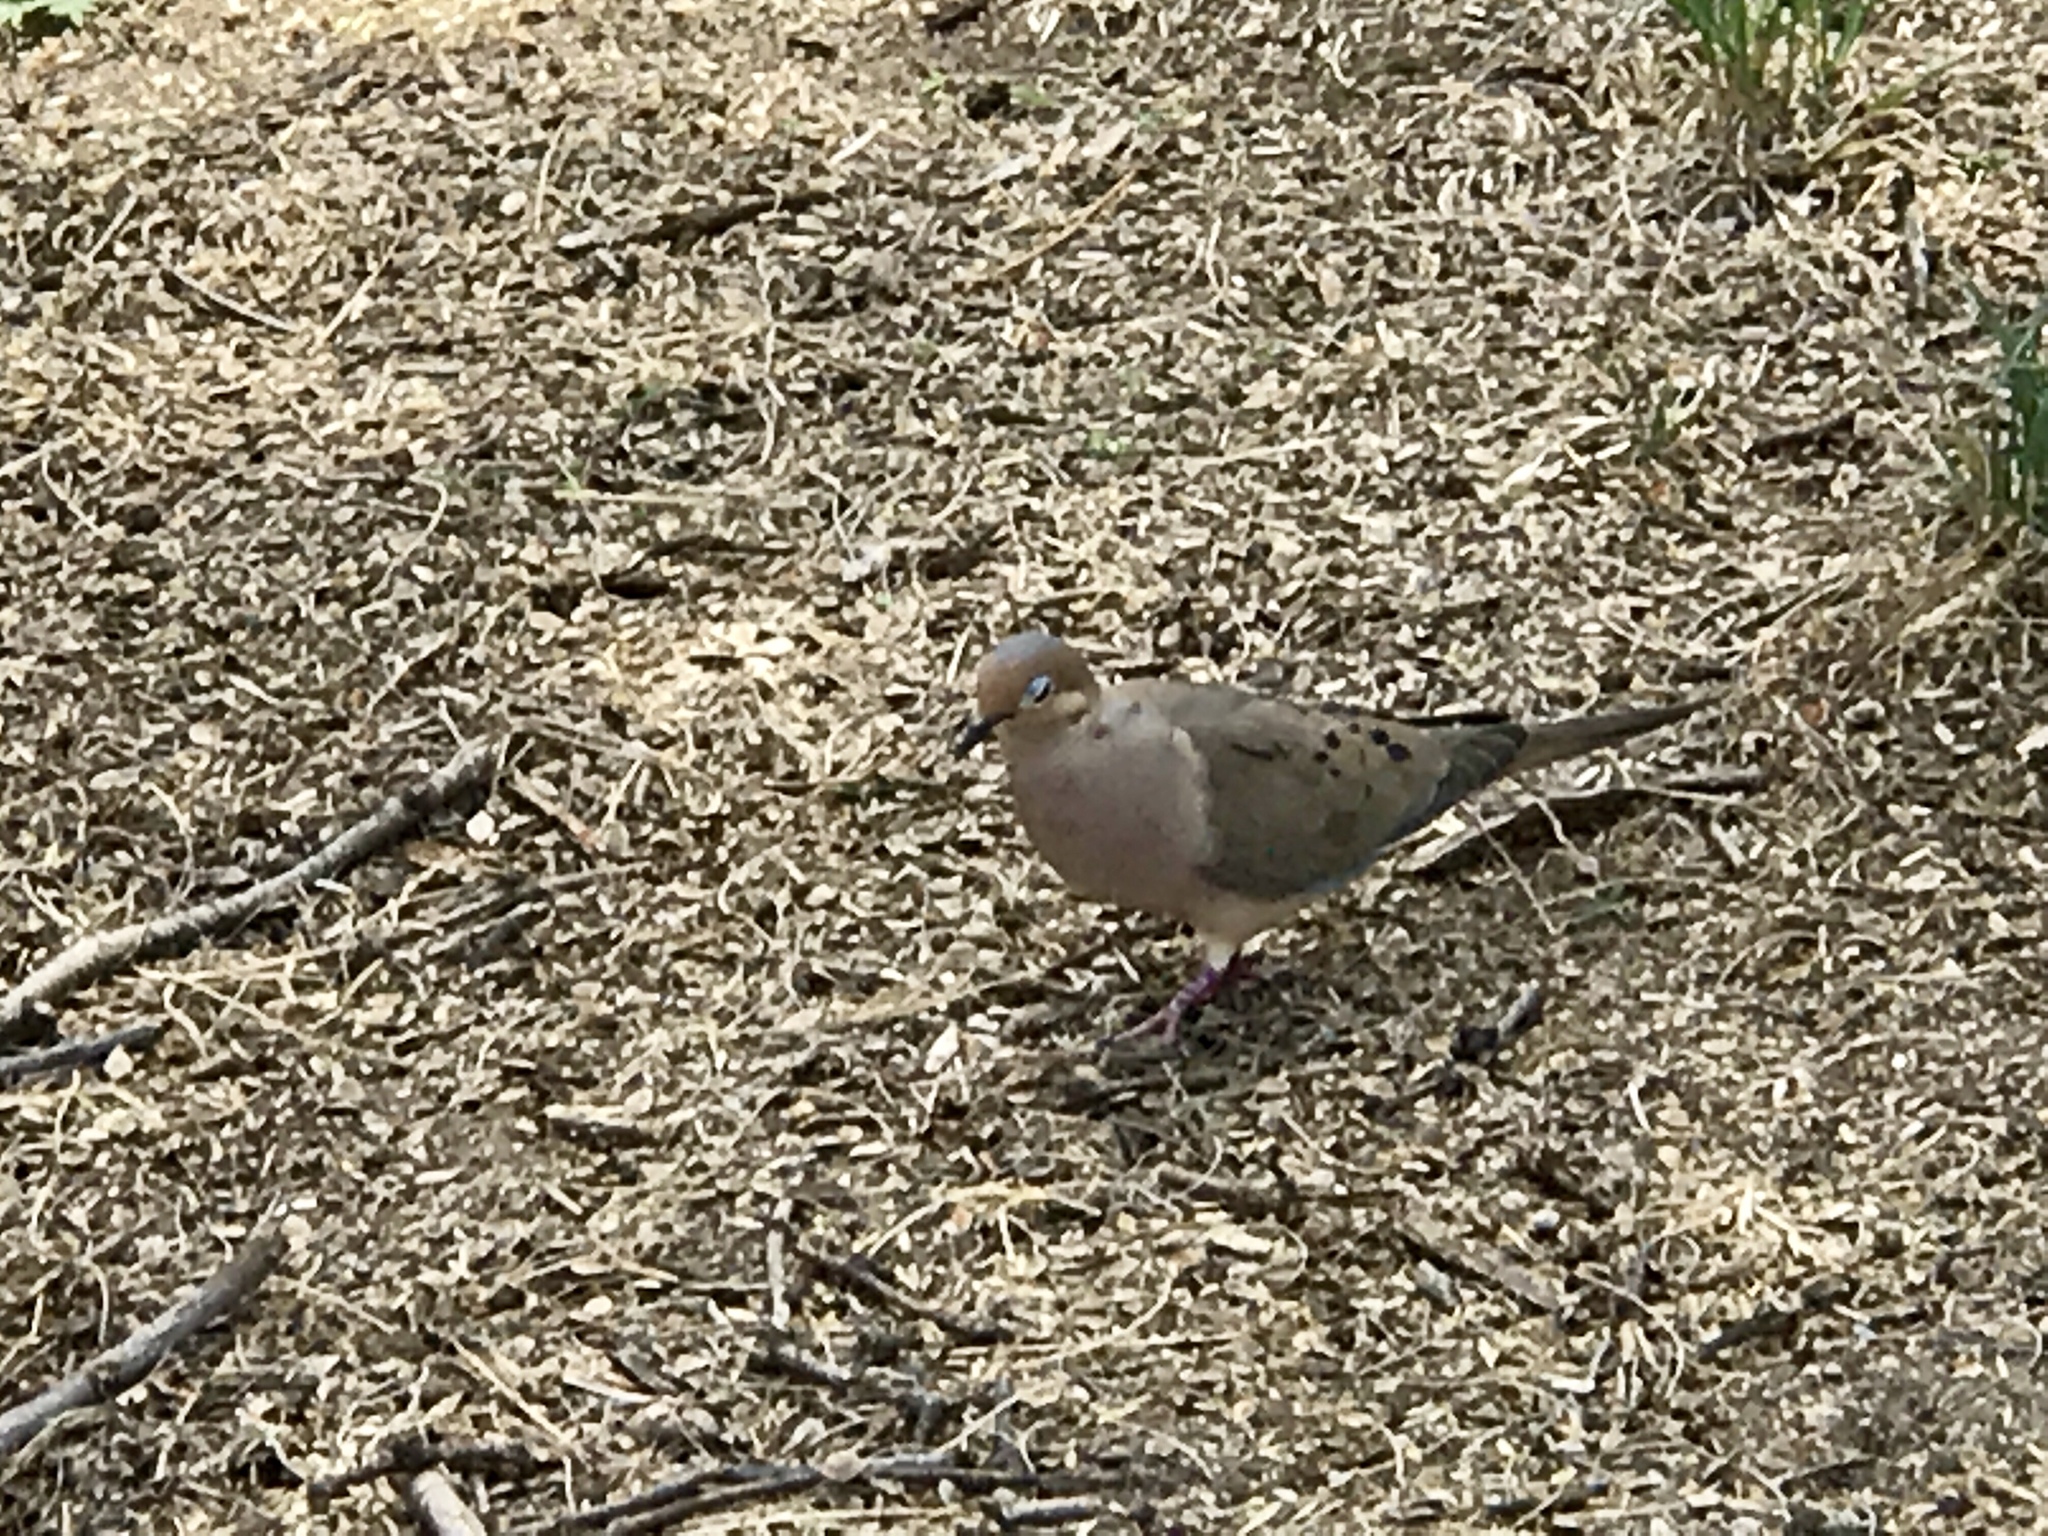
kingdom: Animalia
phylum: Chordata
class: Aves
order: Columbiformes
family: Columbidae
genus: Zenaida
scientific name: Zenaida macroura
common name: Mourning dove
